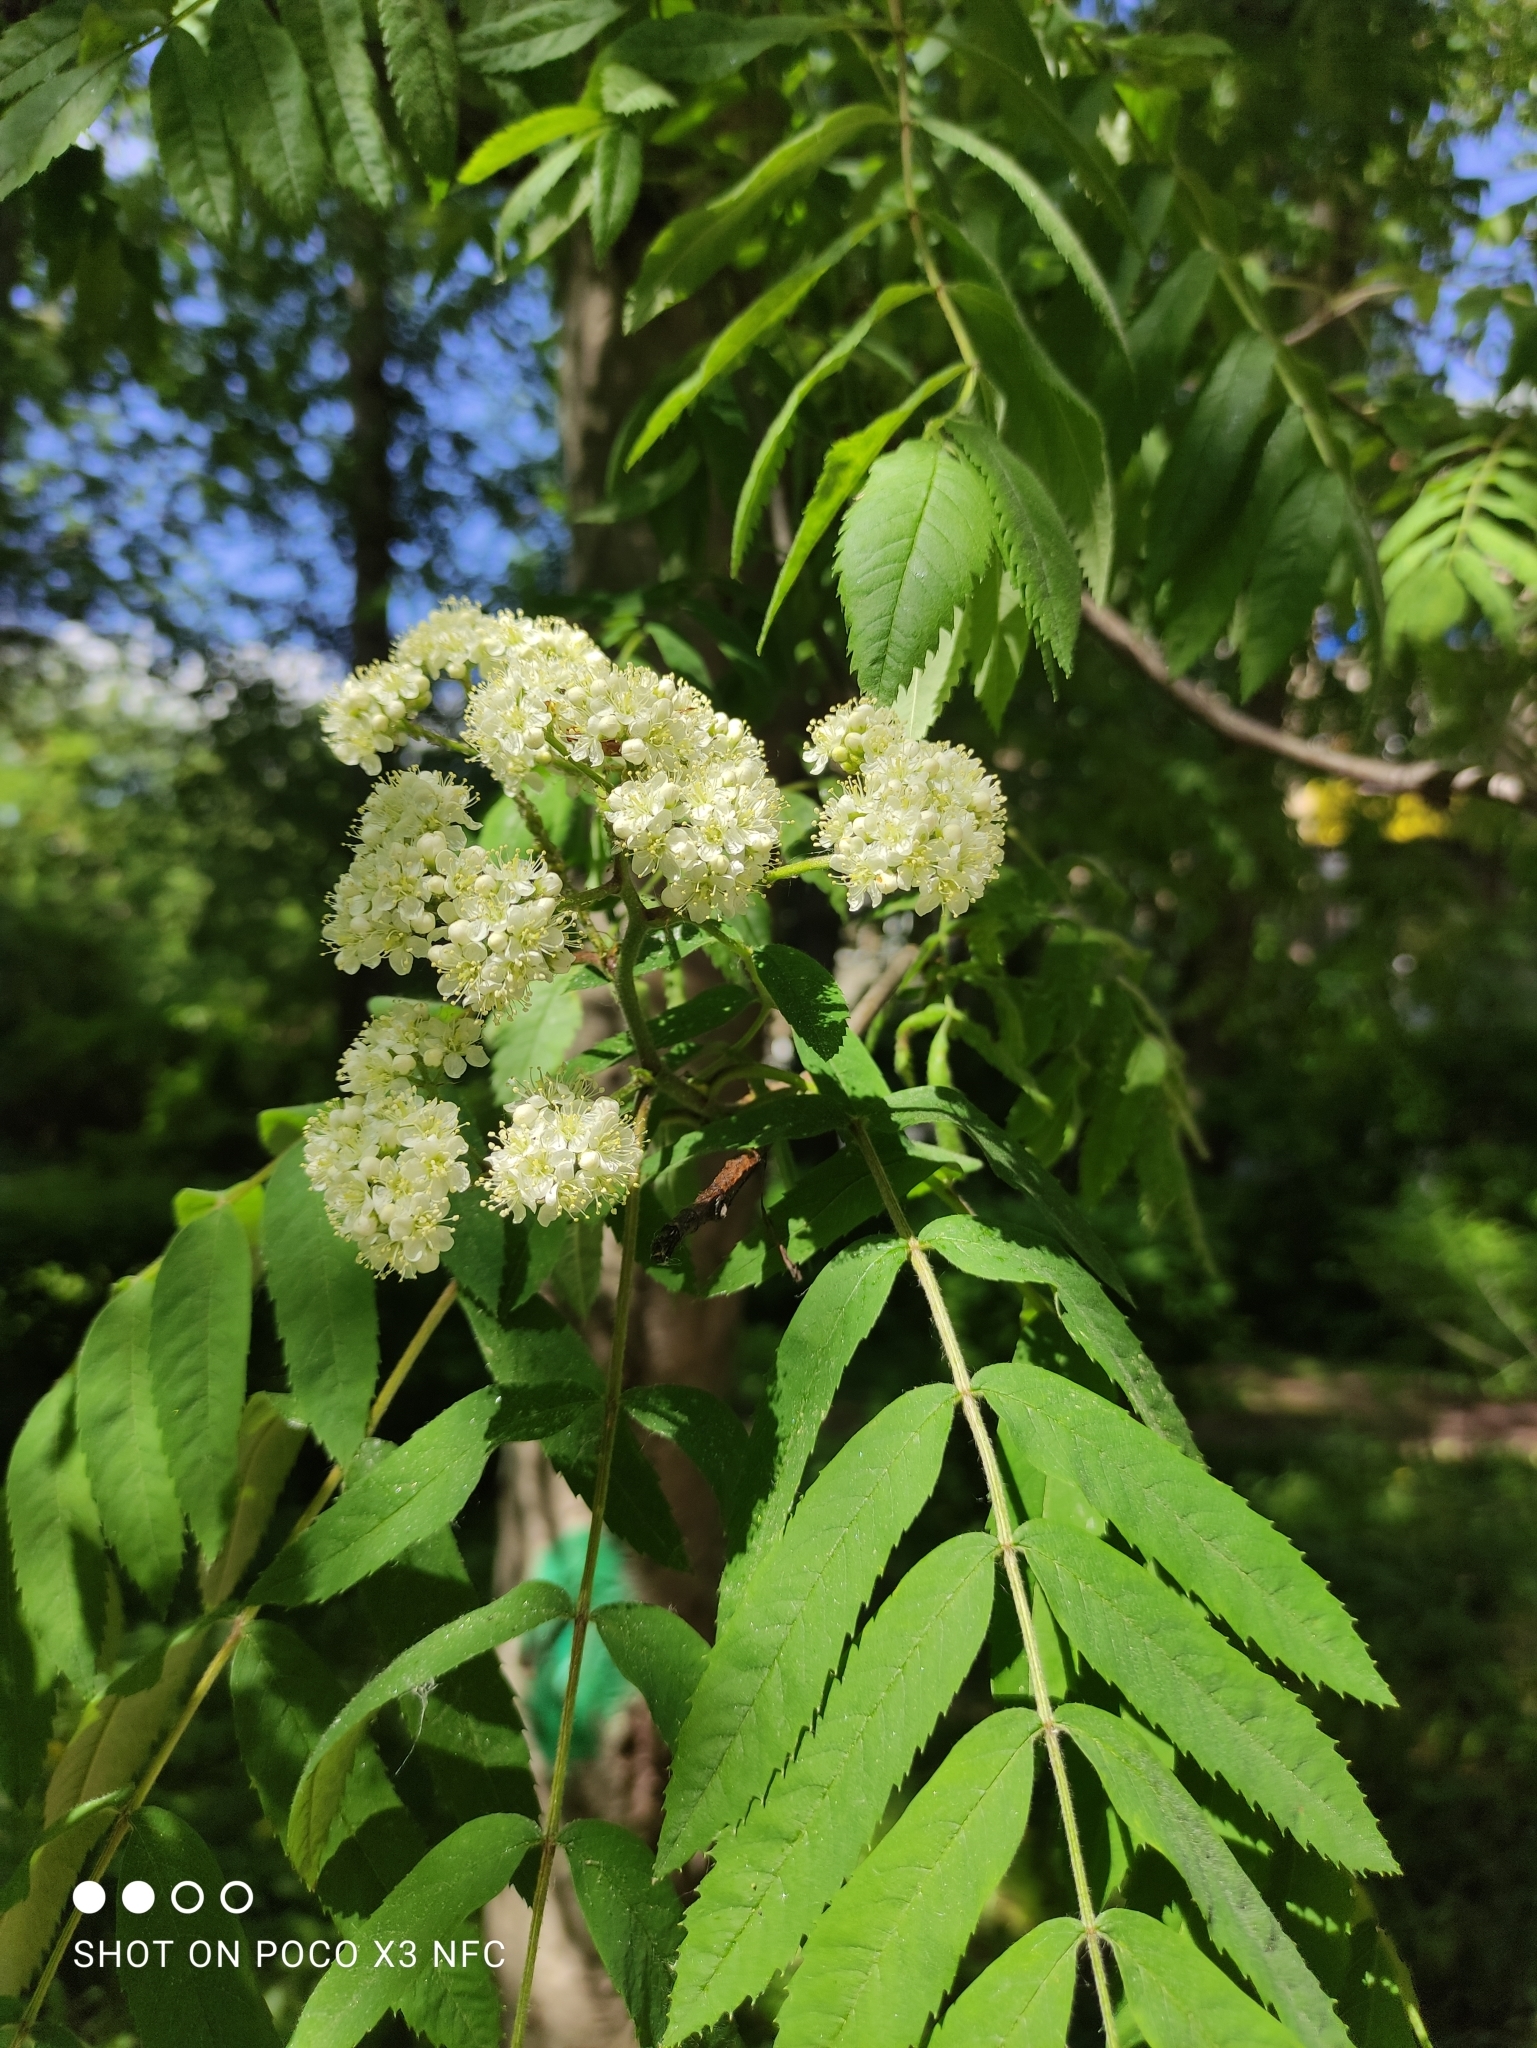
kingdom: Plantae
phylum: Tracheophyta
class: Magnoliopsida
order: Rosales
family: Rosaceae
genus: Sorbus
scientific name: Sorbus aucuparia
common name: Rowan
